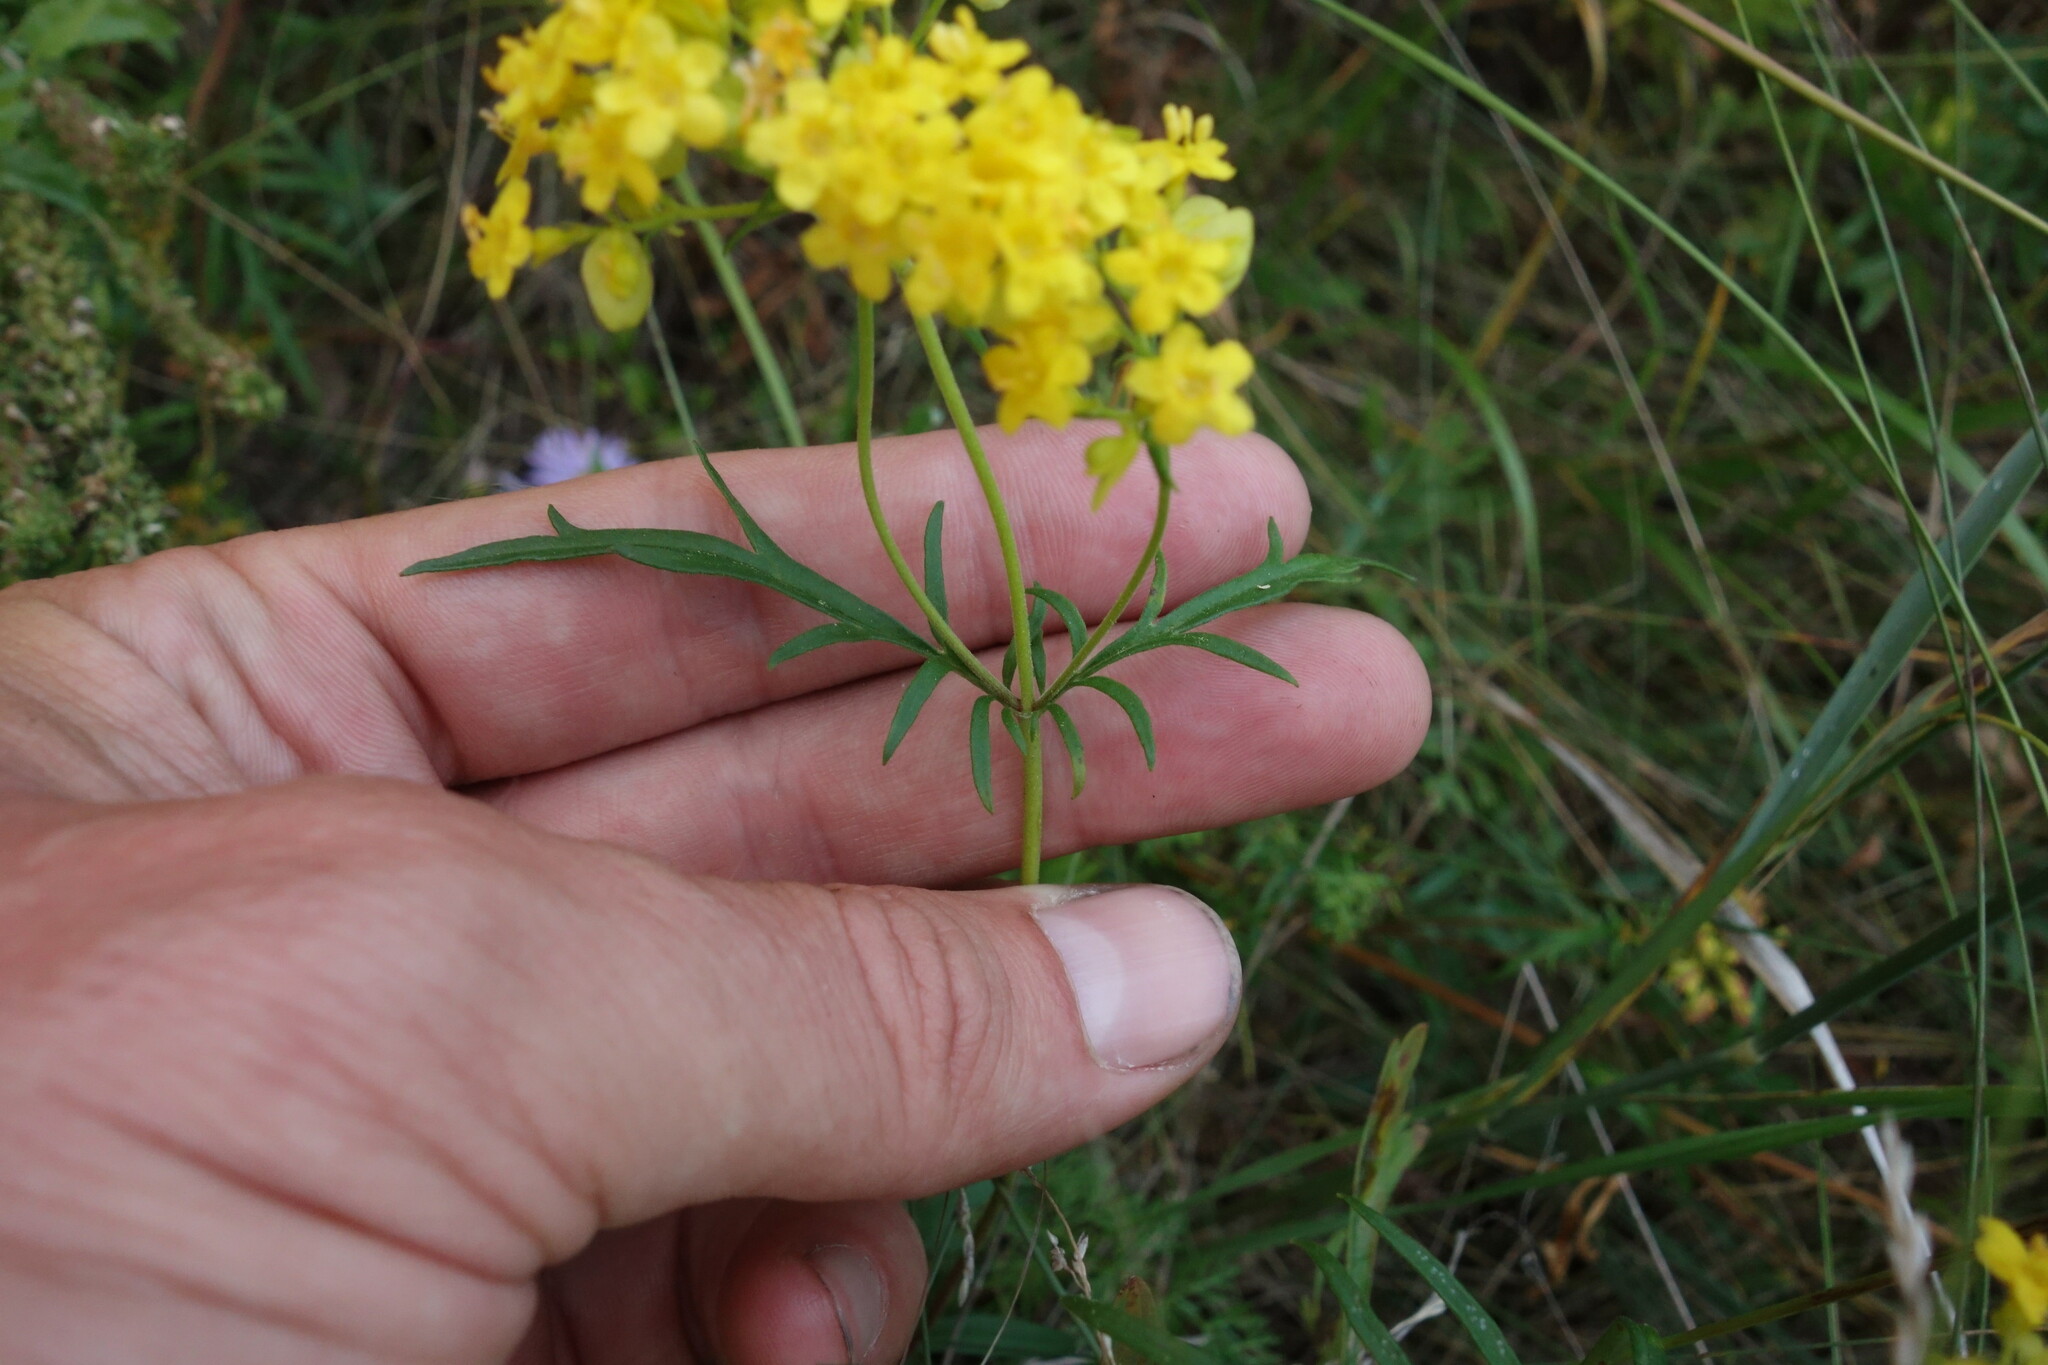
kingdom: Plantae
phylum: Tracheophyta
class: Magnoliopsida
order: Dipsacales
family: Caprifoliaceae
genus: Patrinia
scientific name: Patrinia rupestris
